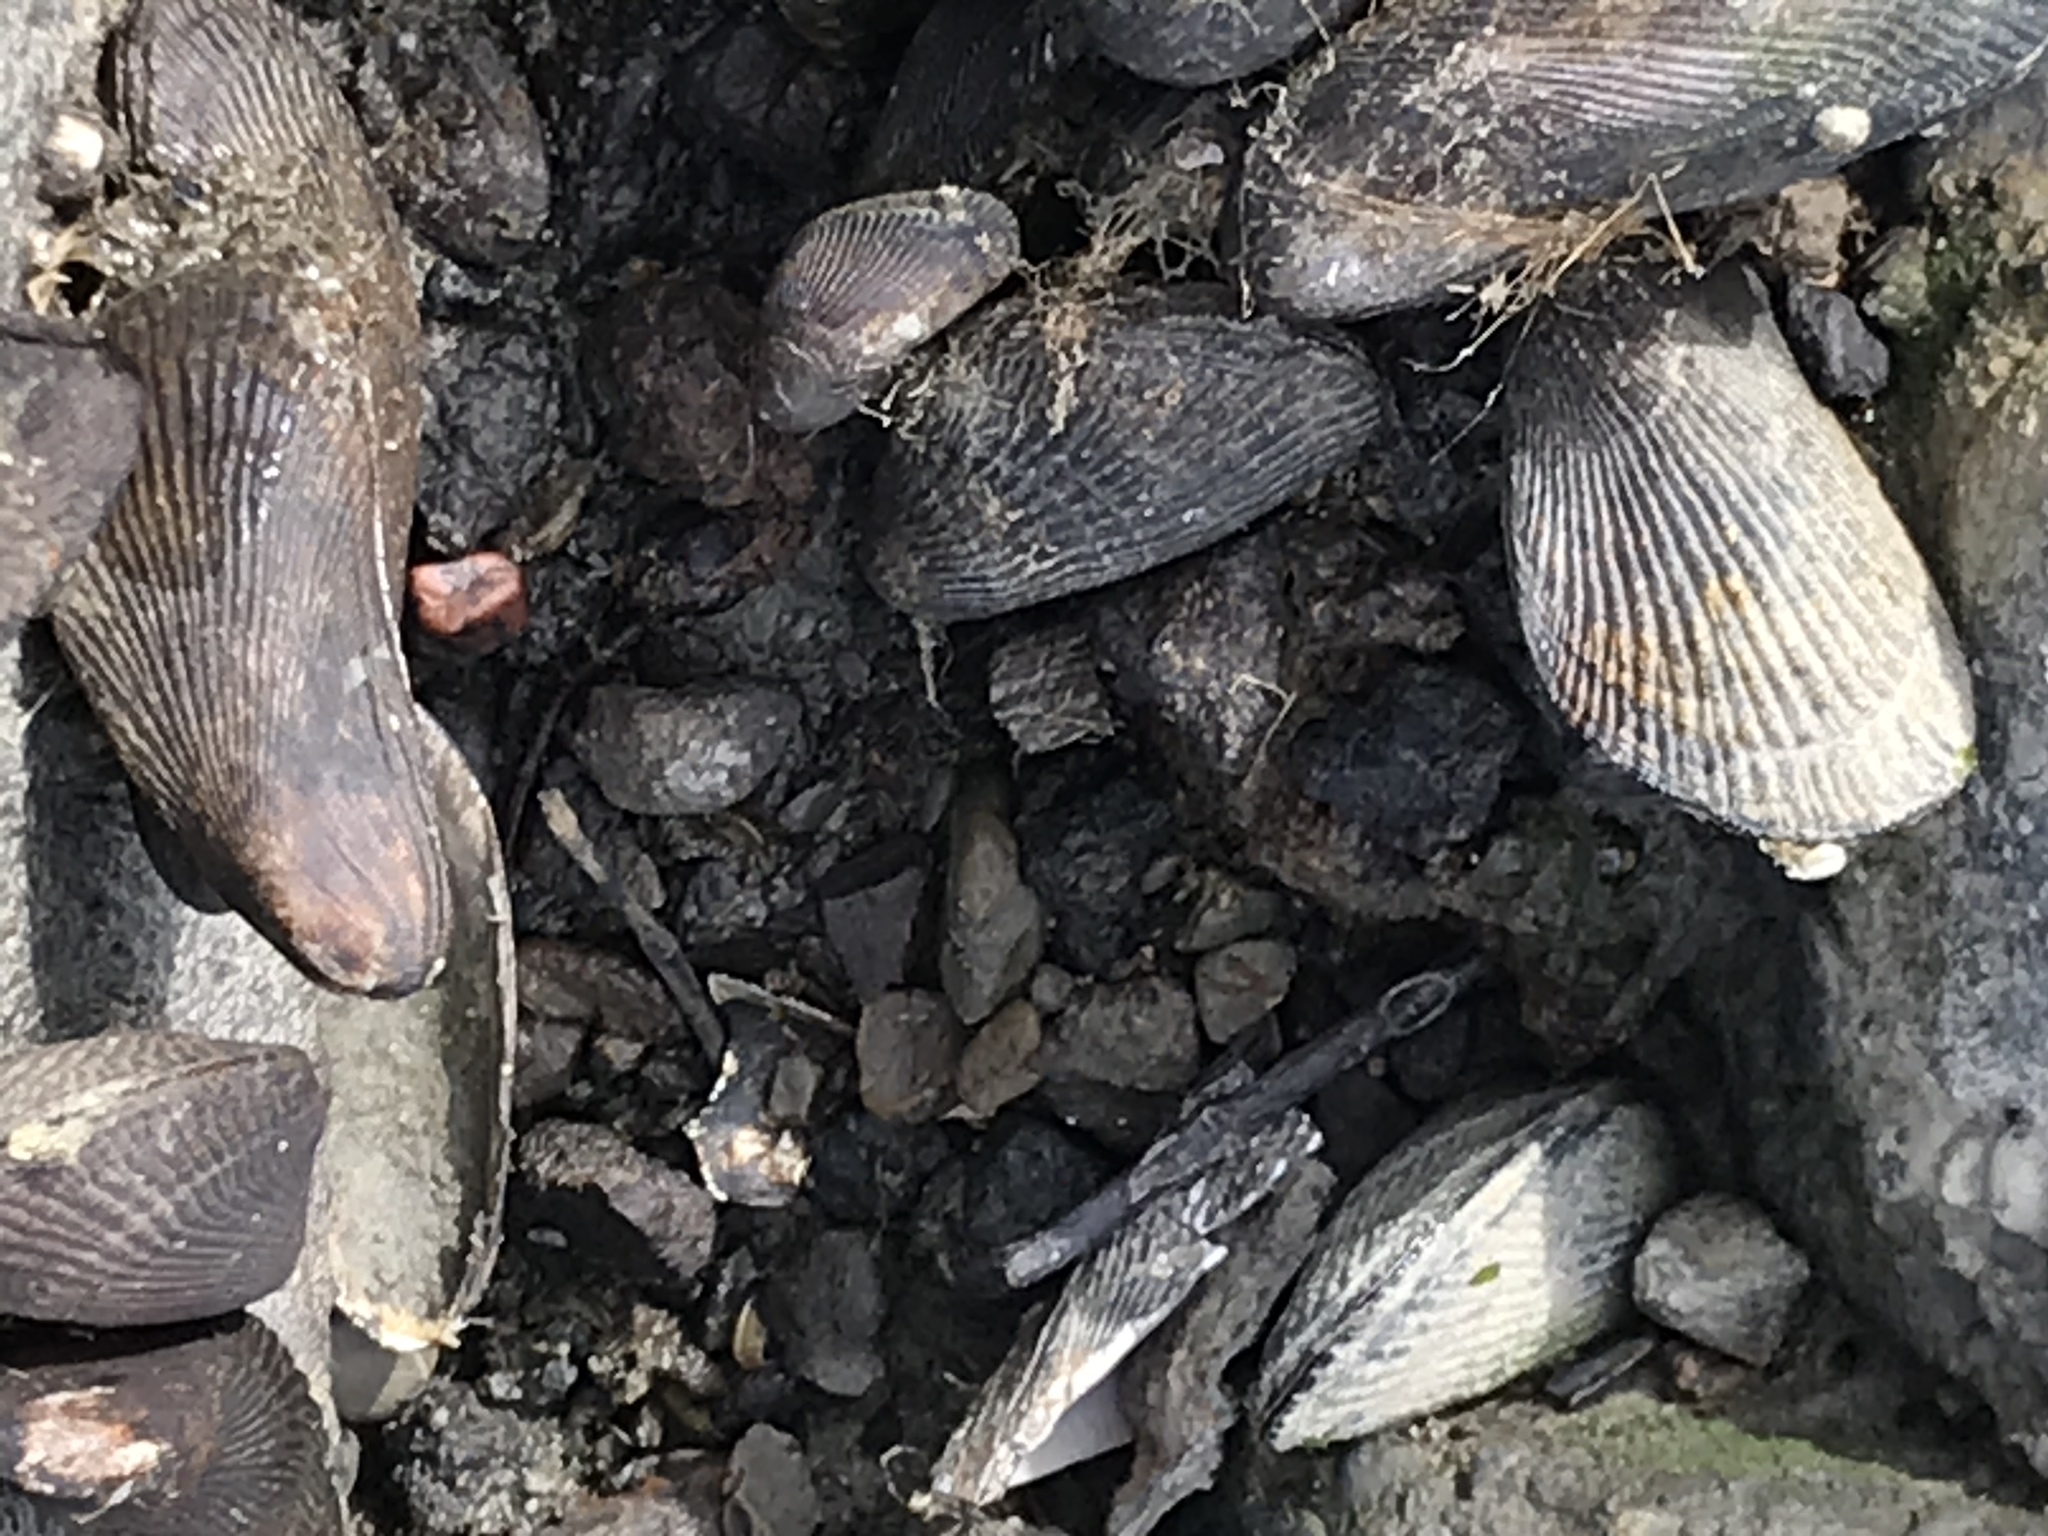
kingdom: Animalia
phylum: Mollusca
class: Bivalvia
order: Mytilida
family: Mytilidae
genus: Geukensia
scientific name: Geukensia demissa
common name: Ribbed mussel
